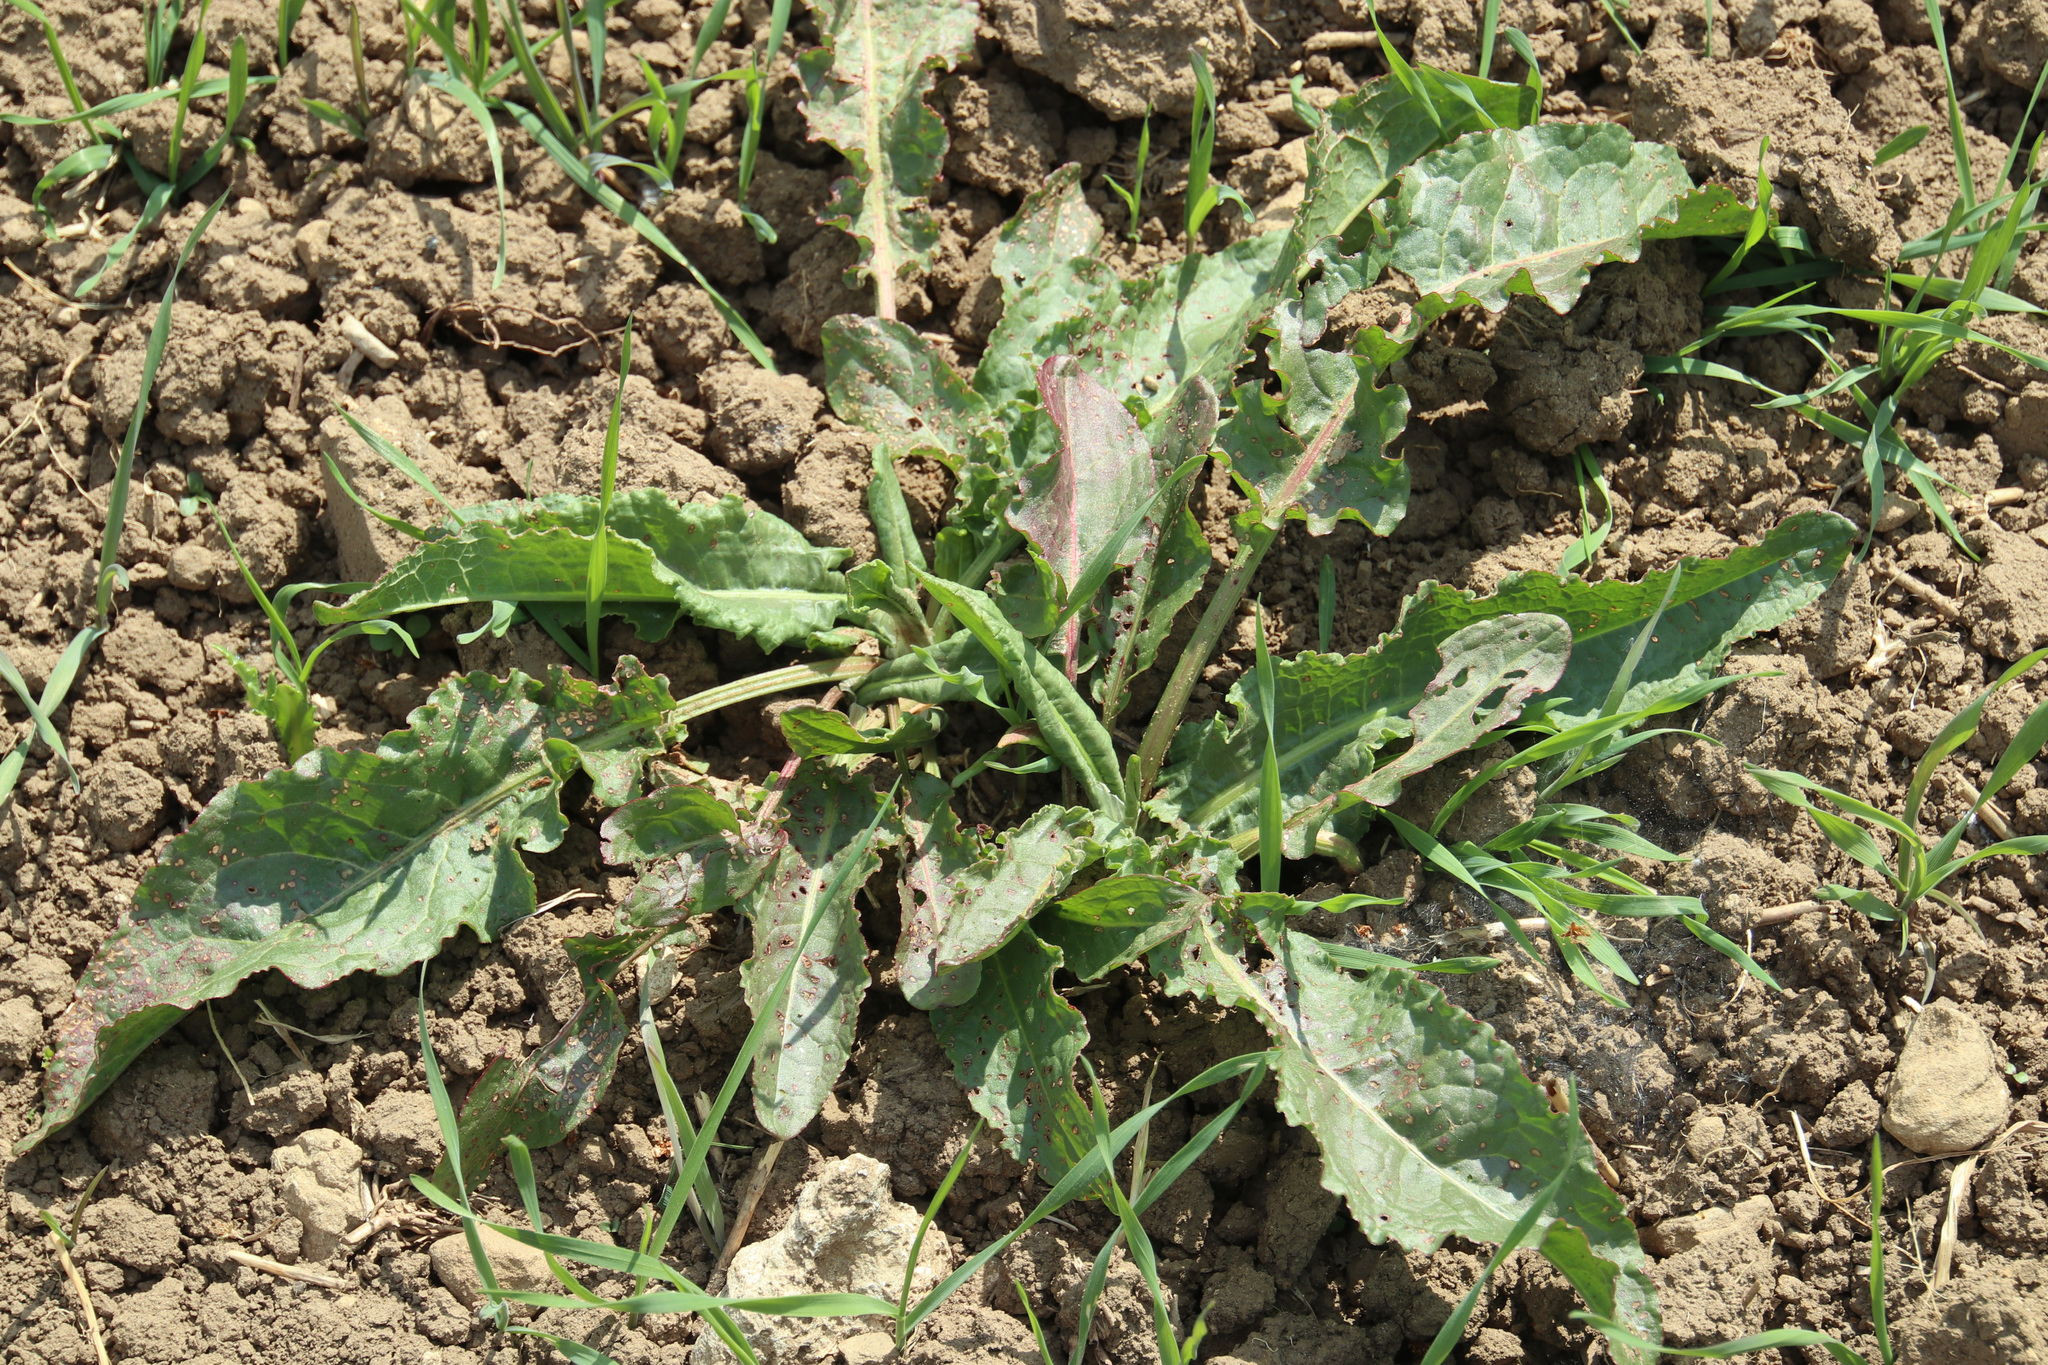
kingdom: Plantae
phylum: Tracheophyta
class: Magnoliopsida
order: Caryophyllales
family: Polygonaceae
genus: Rumex
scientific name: Rumex crispus
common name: Curled dock
